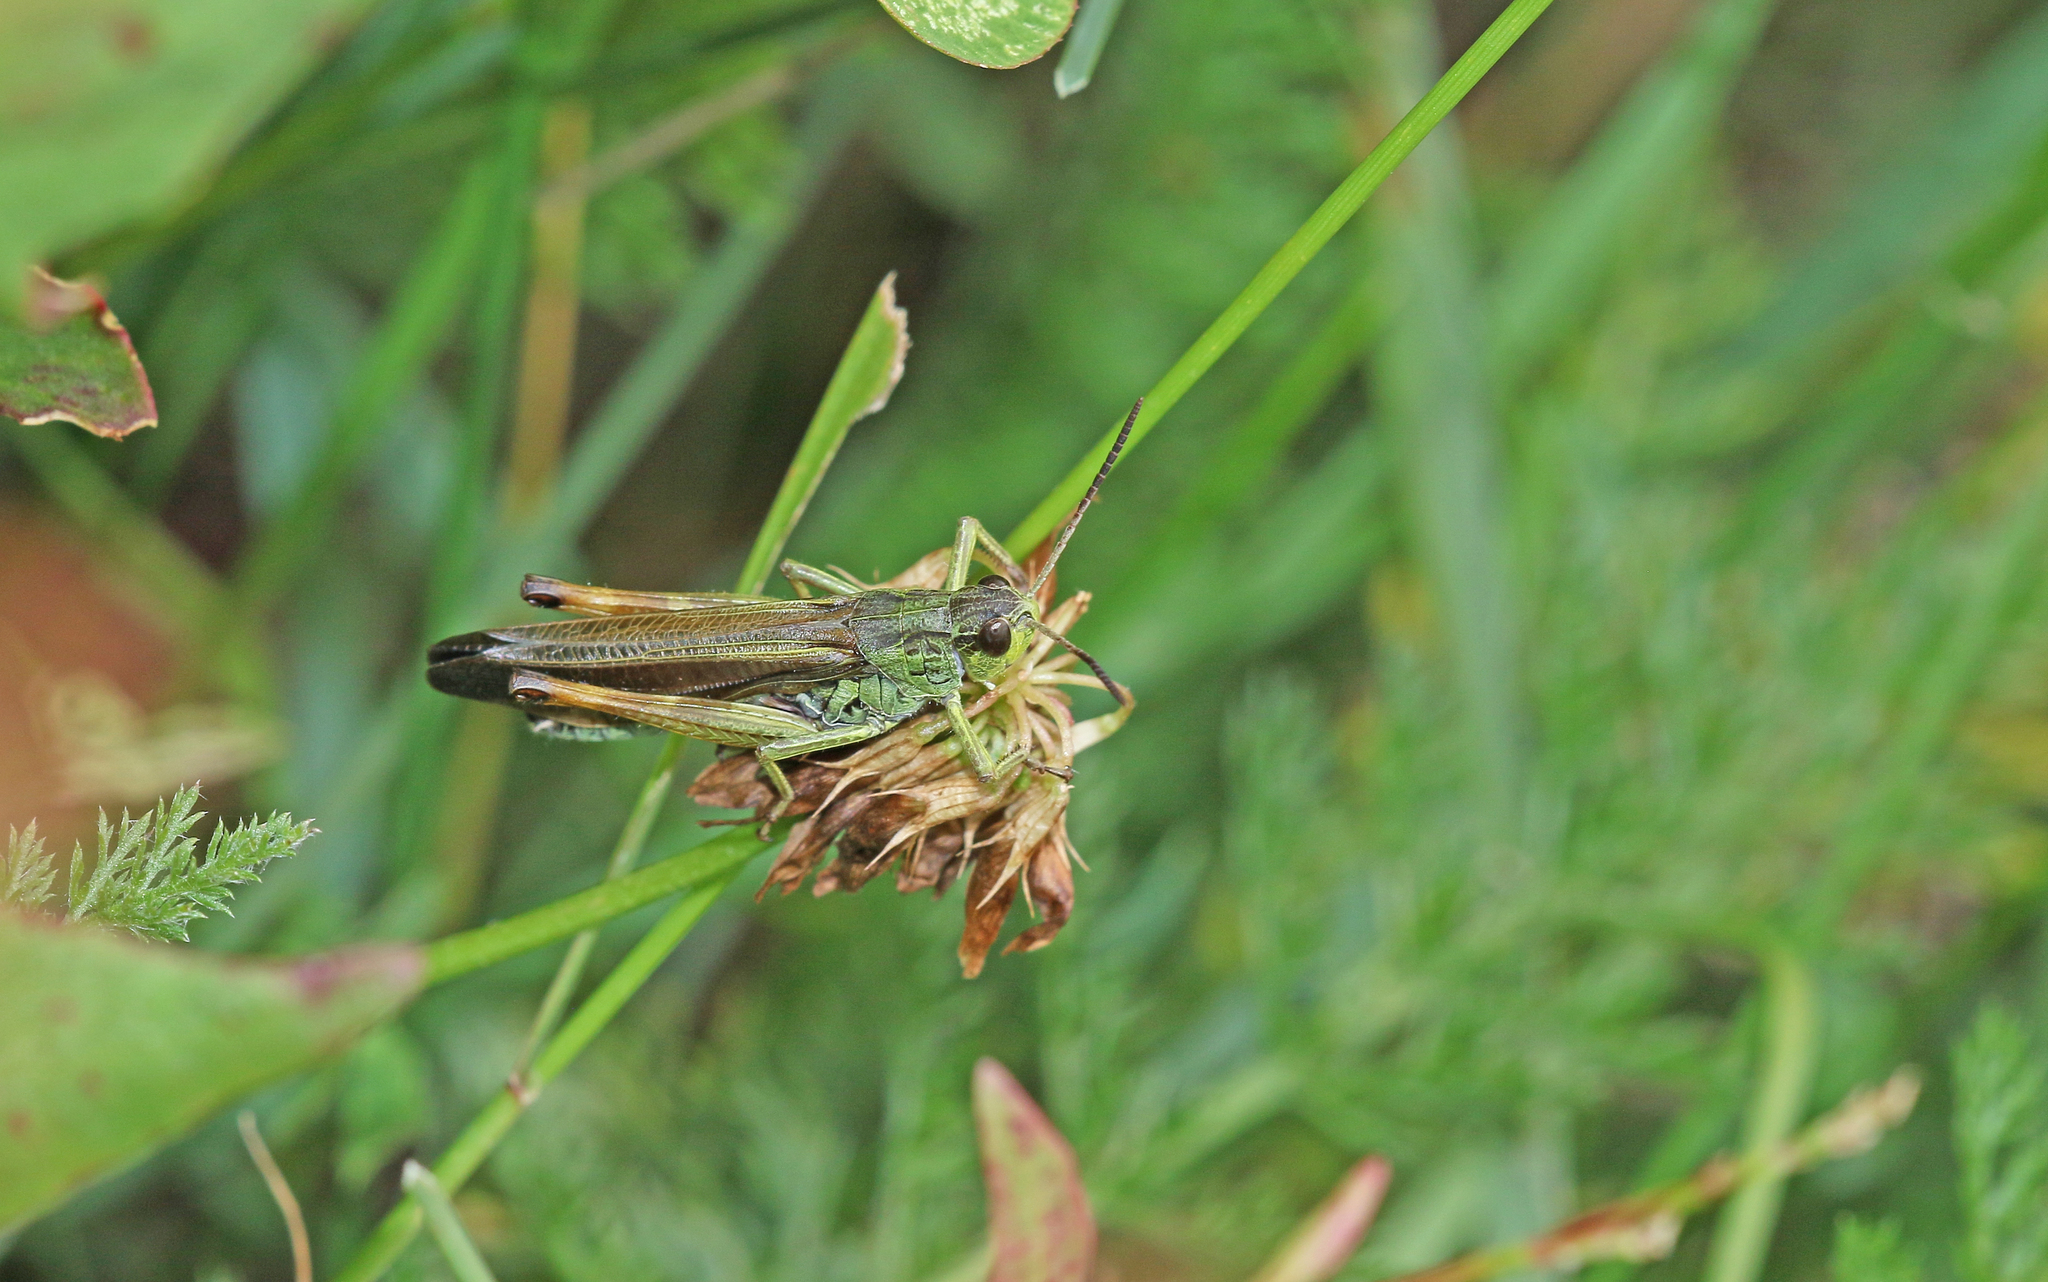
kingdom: Animalia
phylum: Arthropoda
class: Insecta
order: Orthoptera
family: Acrididae
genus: Stauroderus
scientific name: Stauroderus scalaris
